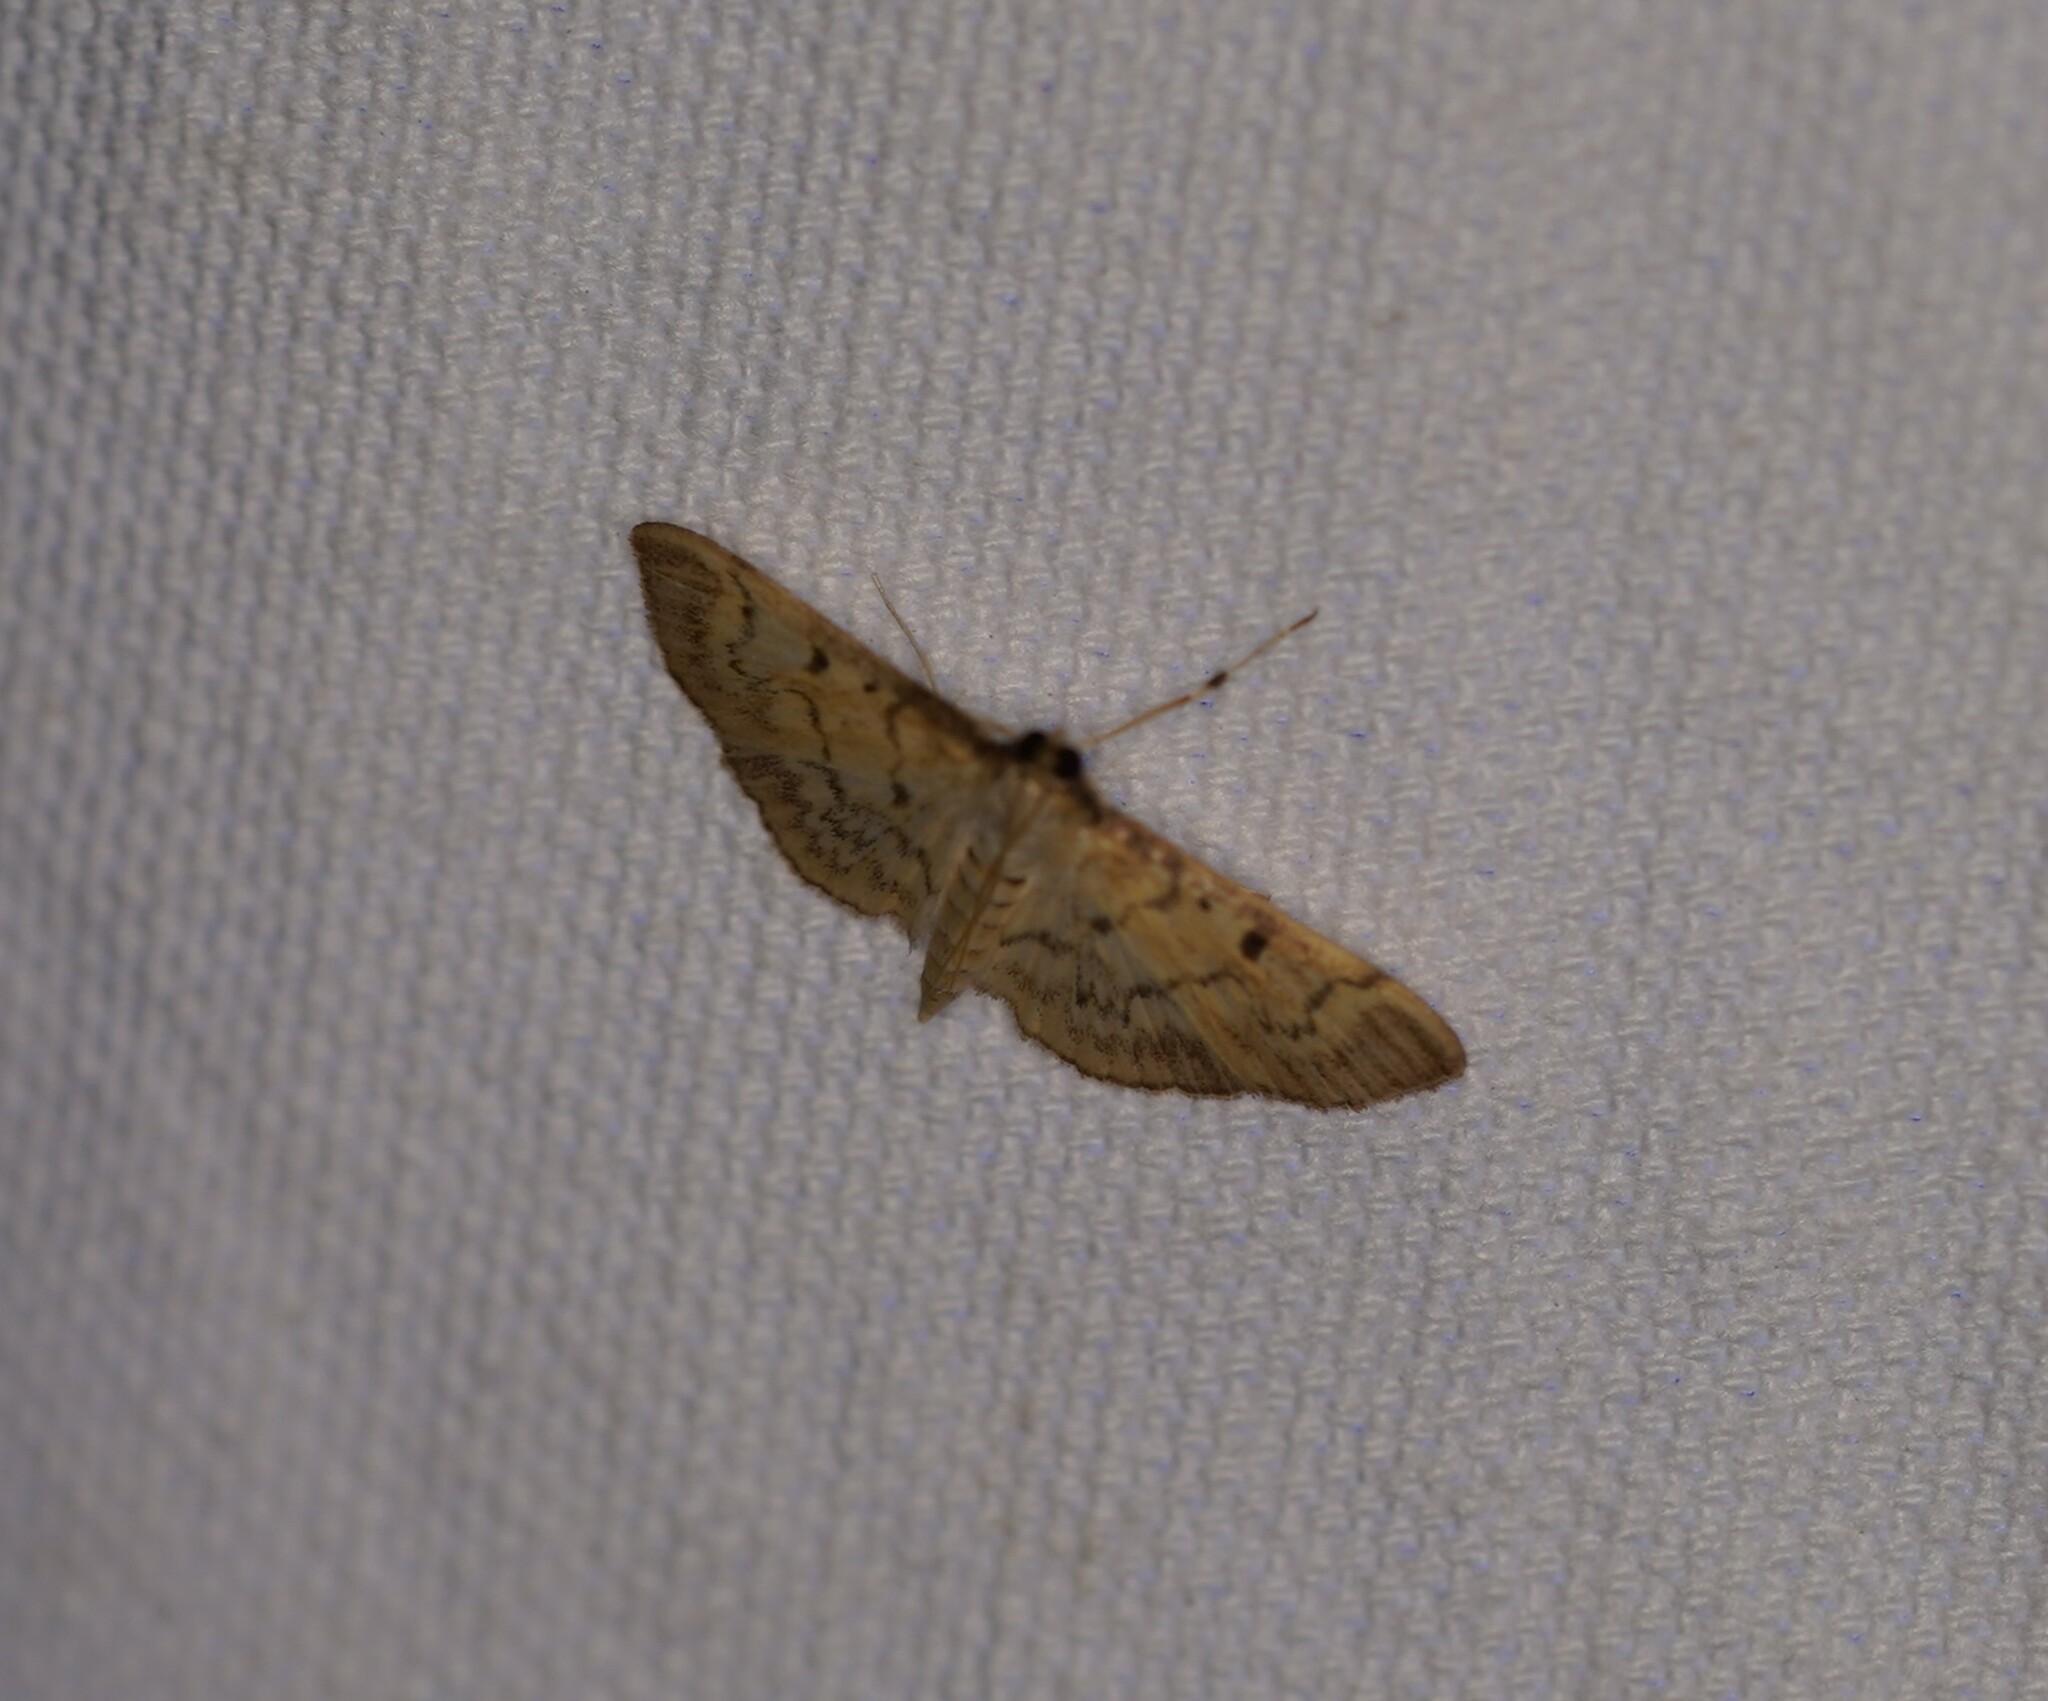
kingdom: Animalia
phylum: Arthropoda
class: Insecta
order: Lepidoptera
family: Crambidae
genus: Herpetogramma
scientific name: Herpetogramma fluctuosalis
